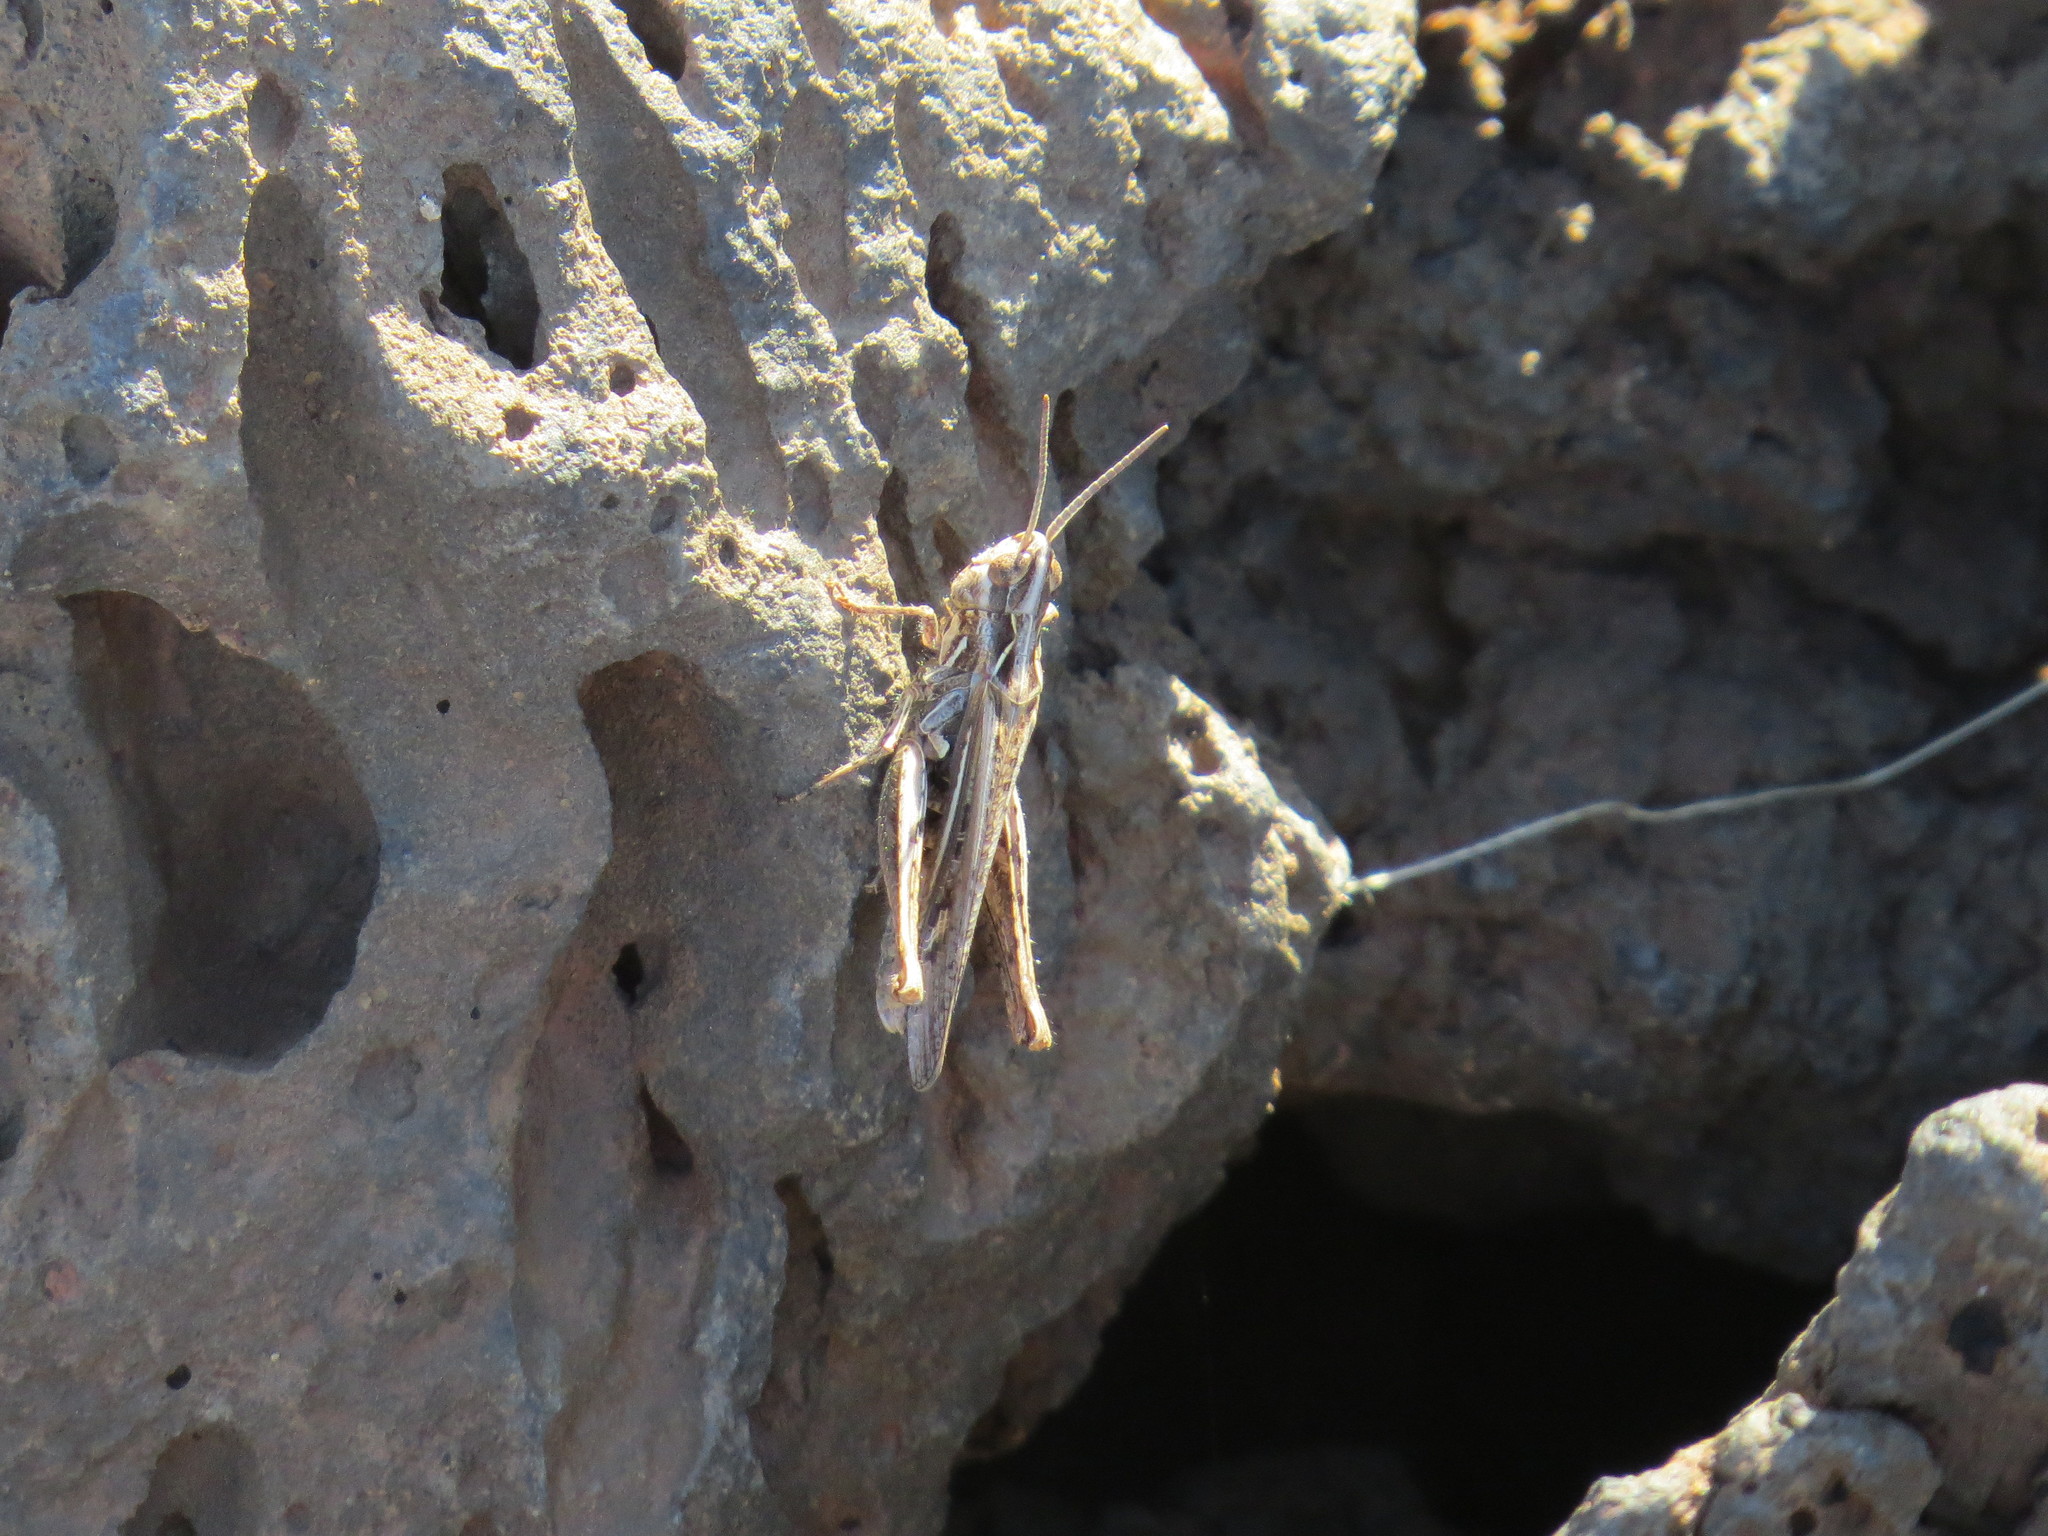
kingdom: Animalia
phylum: Arthropoda
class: Insecta
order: Orthoptera
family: Acrididae
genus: Omocestus
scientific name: Omocestus simonyi
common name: Purpurarian grasshopper
